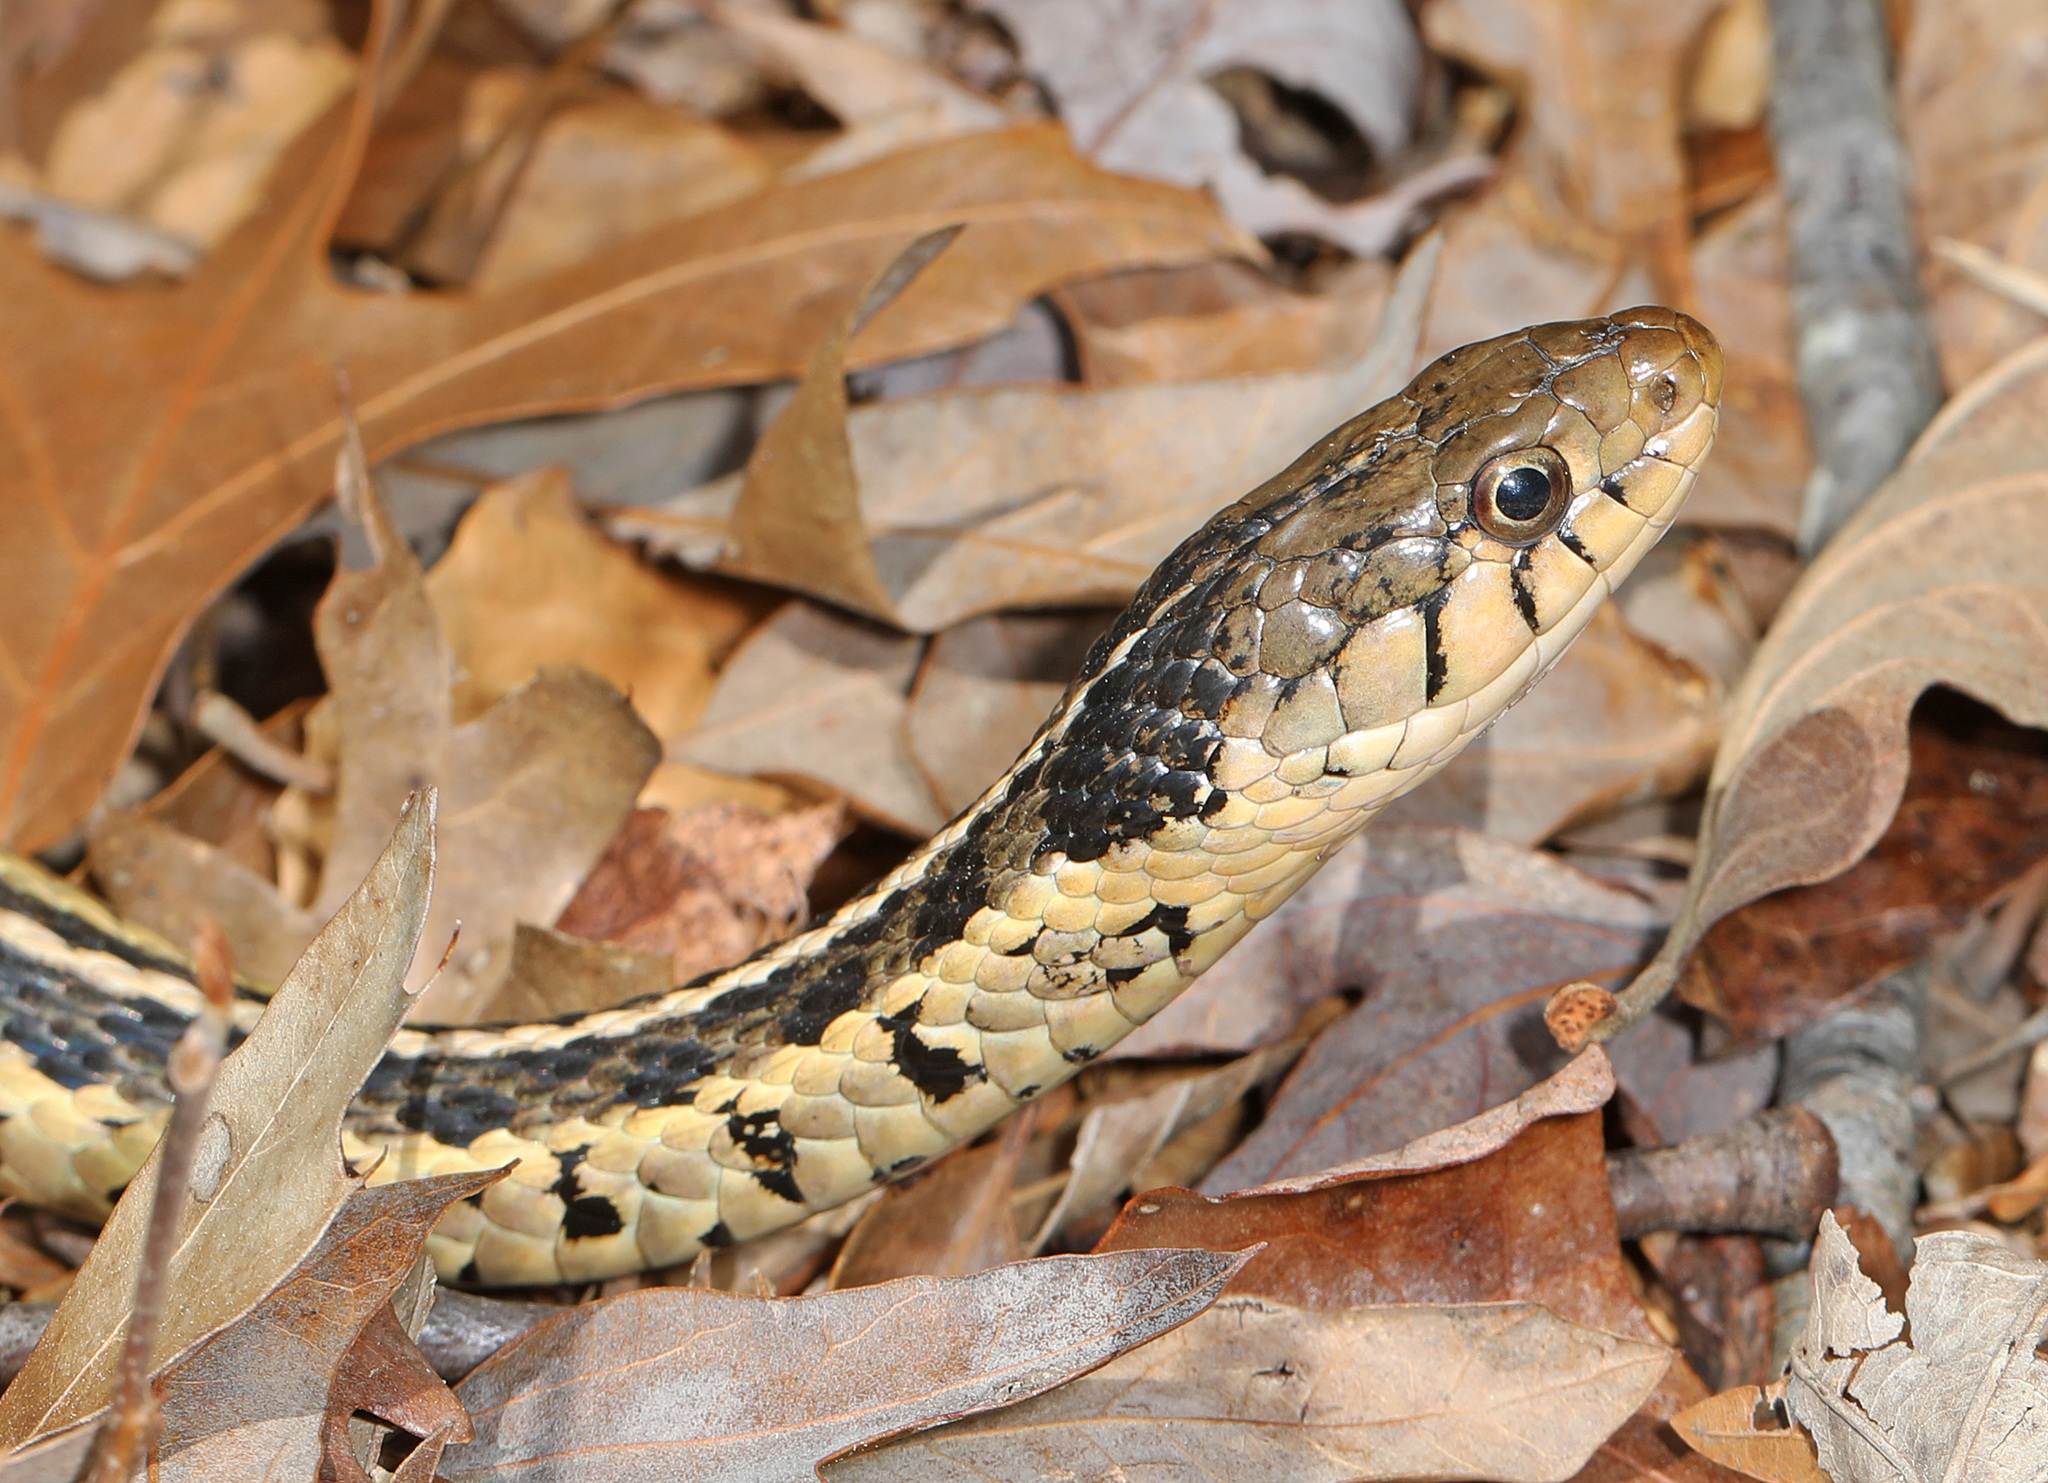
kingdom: Animalia
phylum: Chordata
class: Squamata
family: Colubridae
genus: Thamnophis
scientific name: Thamnophis sirtalis
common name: Common garter snake
